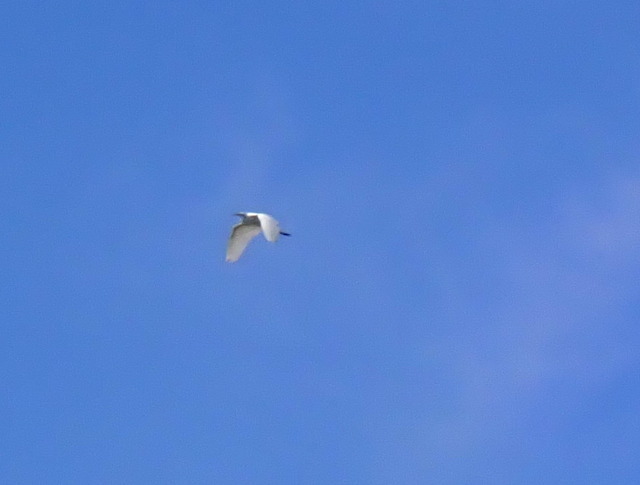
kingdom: Animalia
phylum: Chordata
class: Aves
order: Pelecaniformes
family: Ardeidae
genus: Ardea
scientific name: Ardea alba
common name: Great egret
